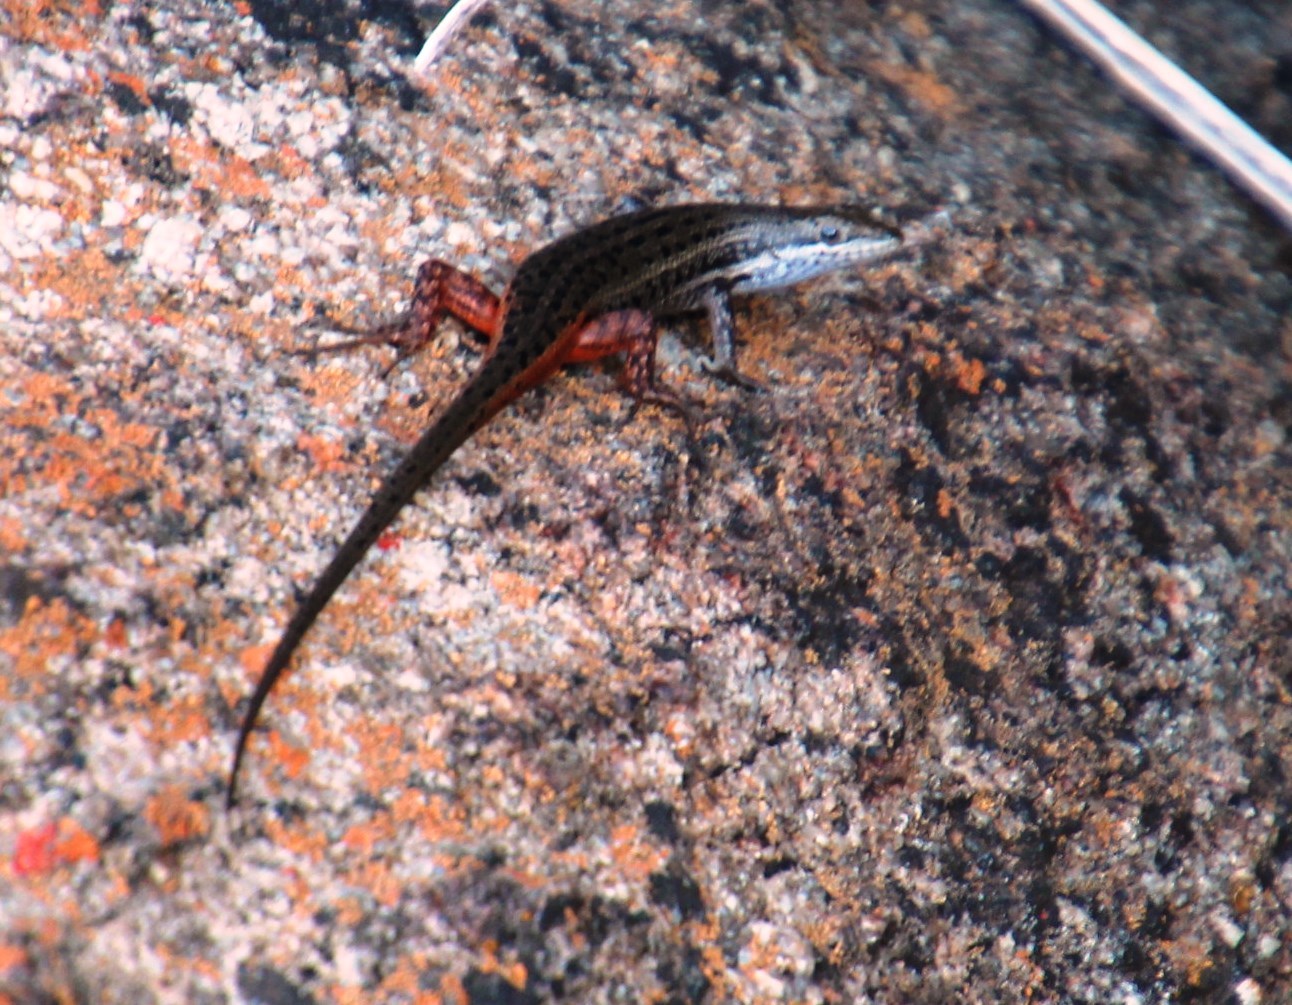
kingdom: Animalia
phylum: Chordata
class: Squamata
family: Scincidae
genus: Trachylepis
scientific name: Trachylepis variegata
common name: Variegated skink
